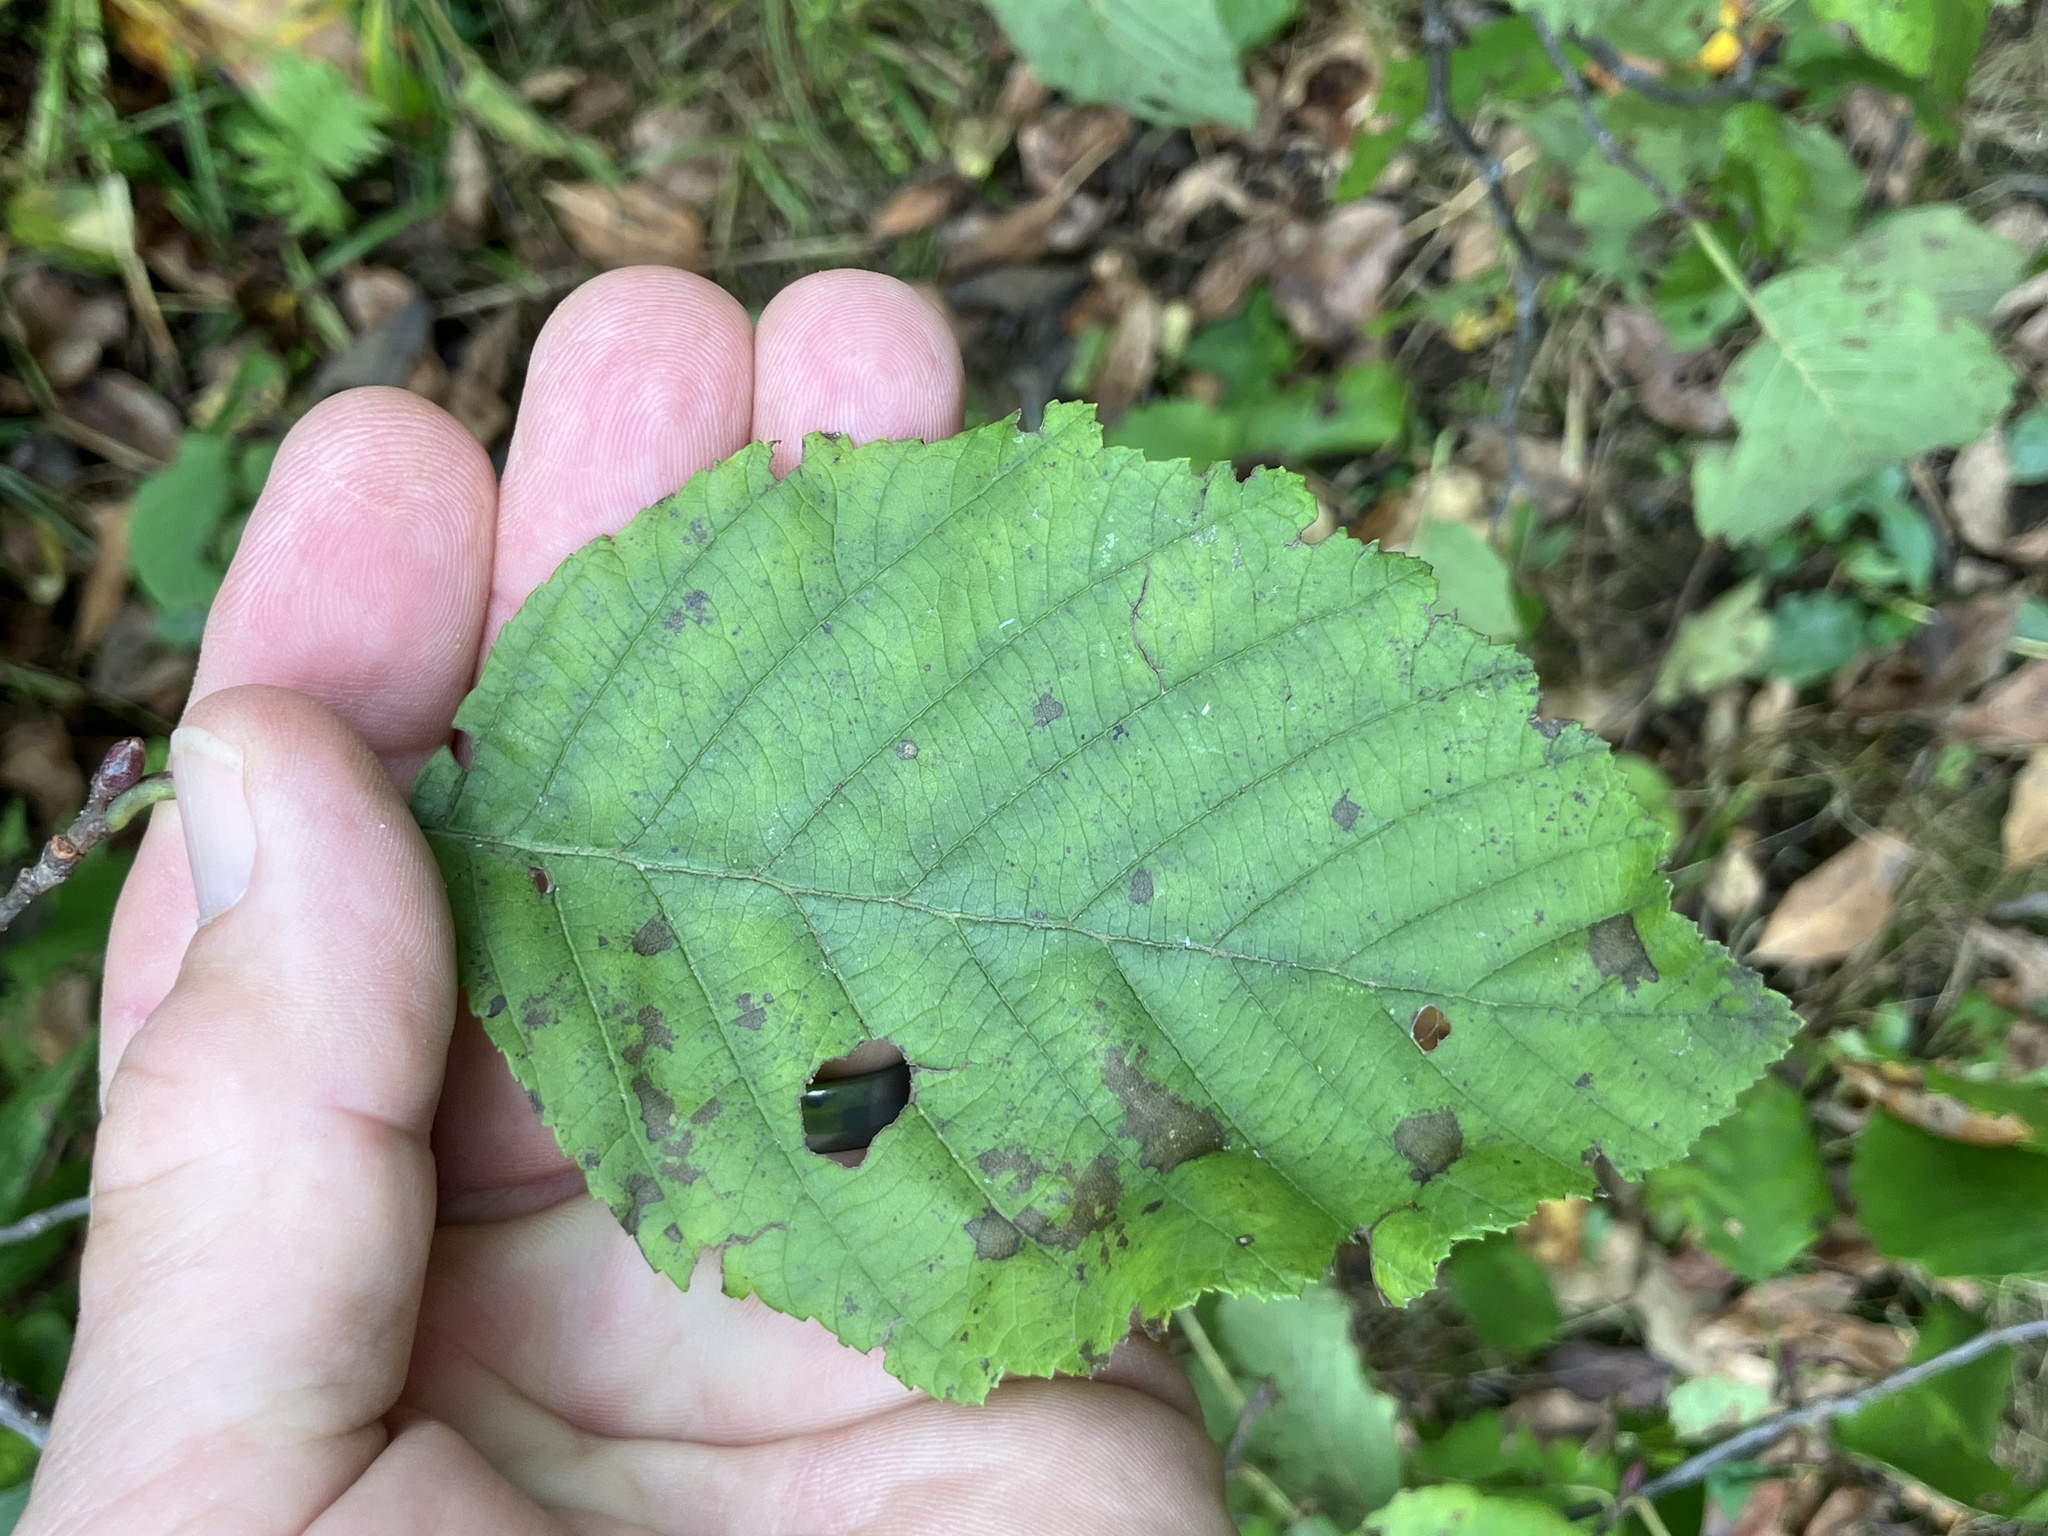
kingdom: Plantae
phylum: Tracheophyta
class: Magnoliopsida
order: Fagales
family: Betulaceae
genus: Alnus
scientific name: Alnus incana
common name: Grey alder
